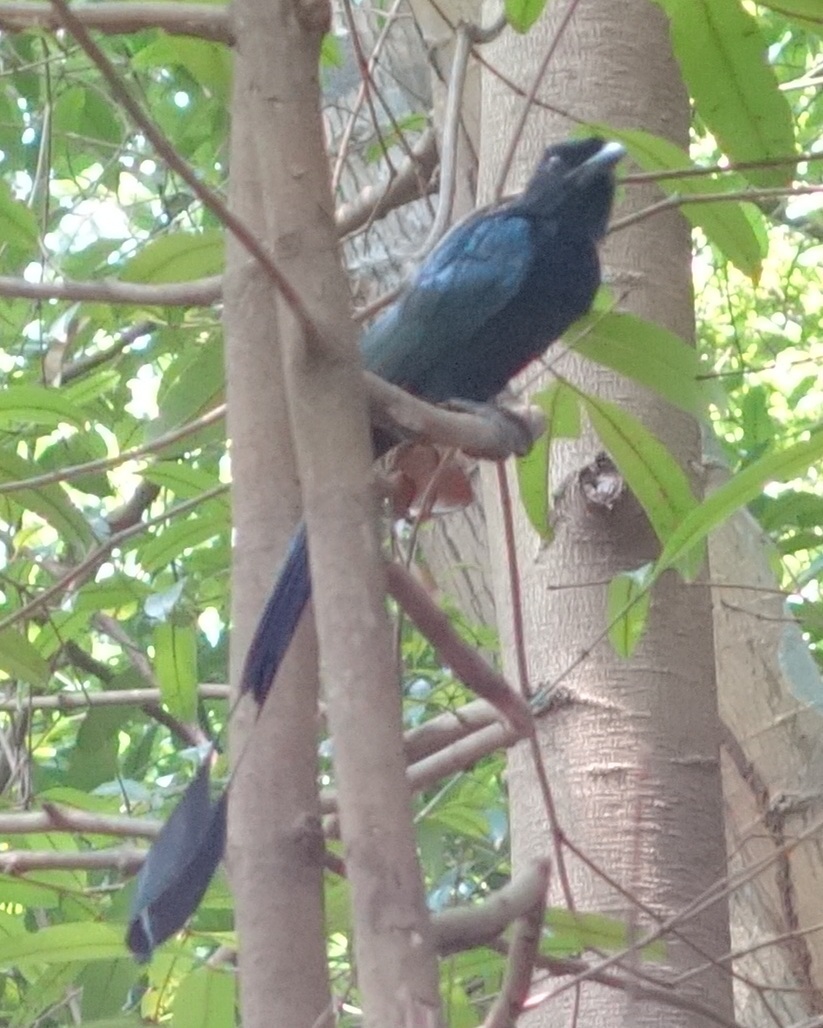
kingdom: Animalia
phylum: Chordata
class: Aves
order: Passeriformes
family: Dicruridae
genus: Dicrurus
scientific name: Dicrurus paradiseus
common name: Greater racket-tailed drongo
